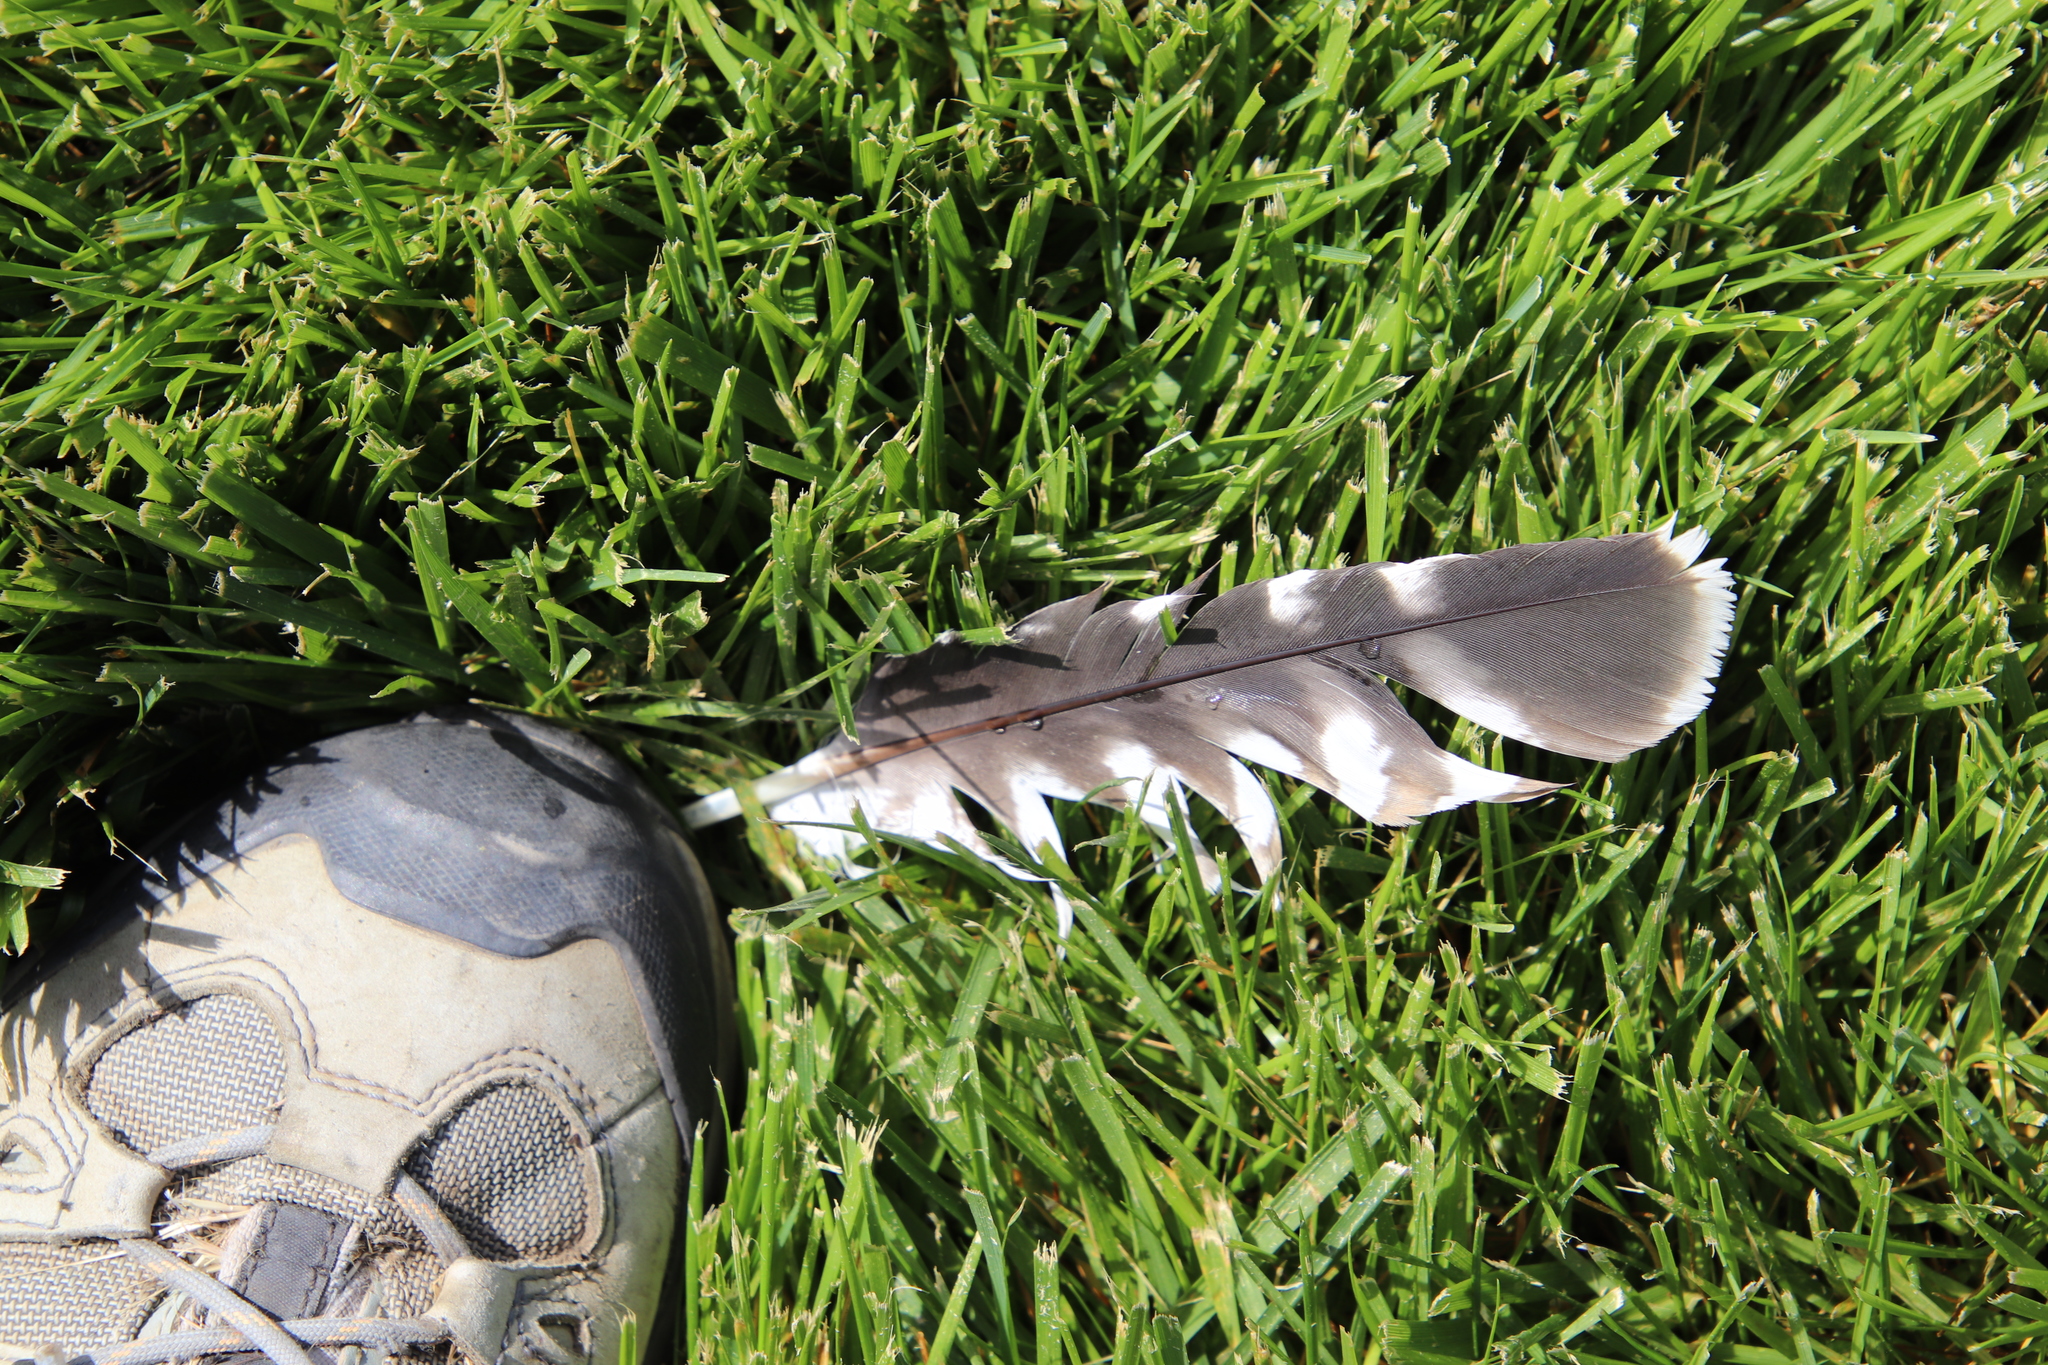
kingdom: Animalia
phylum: Chordata
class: Aves
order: Accipitriformes
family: Accipitridae
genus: Buteo
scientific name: Buteo lineatus
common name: Red-shouldered hawk
